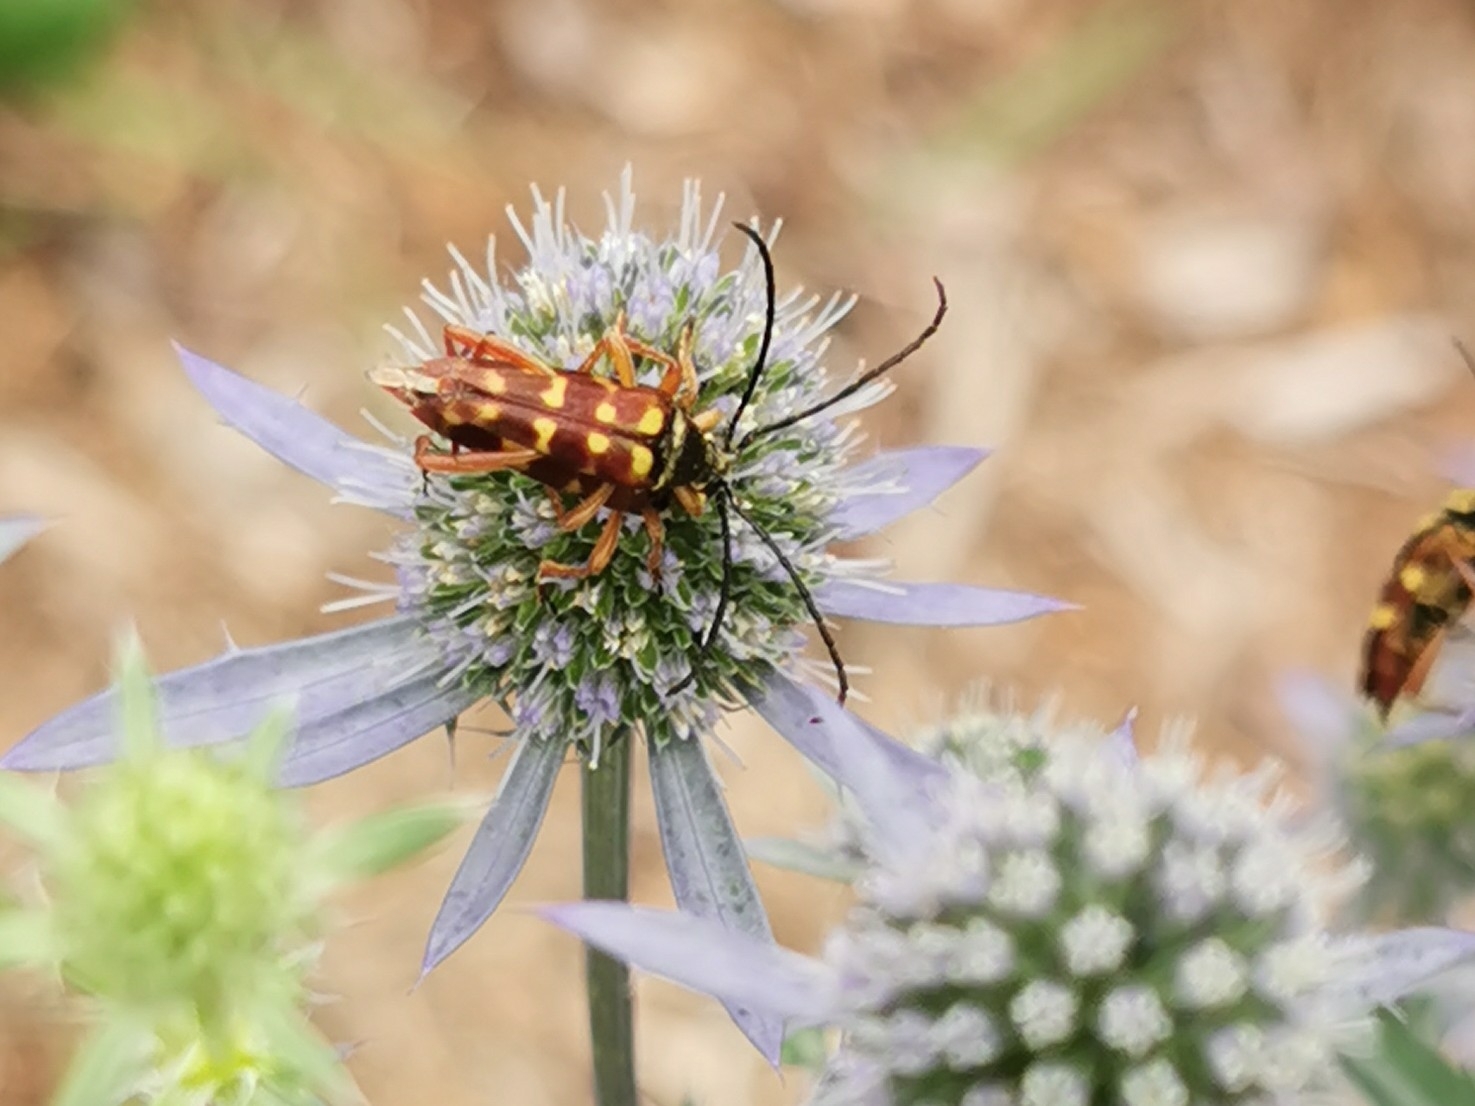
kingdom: Animalia
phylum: Arthropoda
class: Insecta
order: Coleoptera
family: Cerambycidae
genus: Typocerus
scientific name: Typocerus velutinus
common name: Banded longhorn beetle
